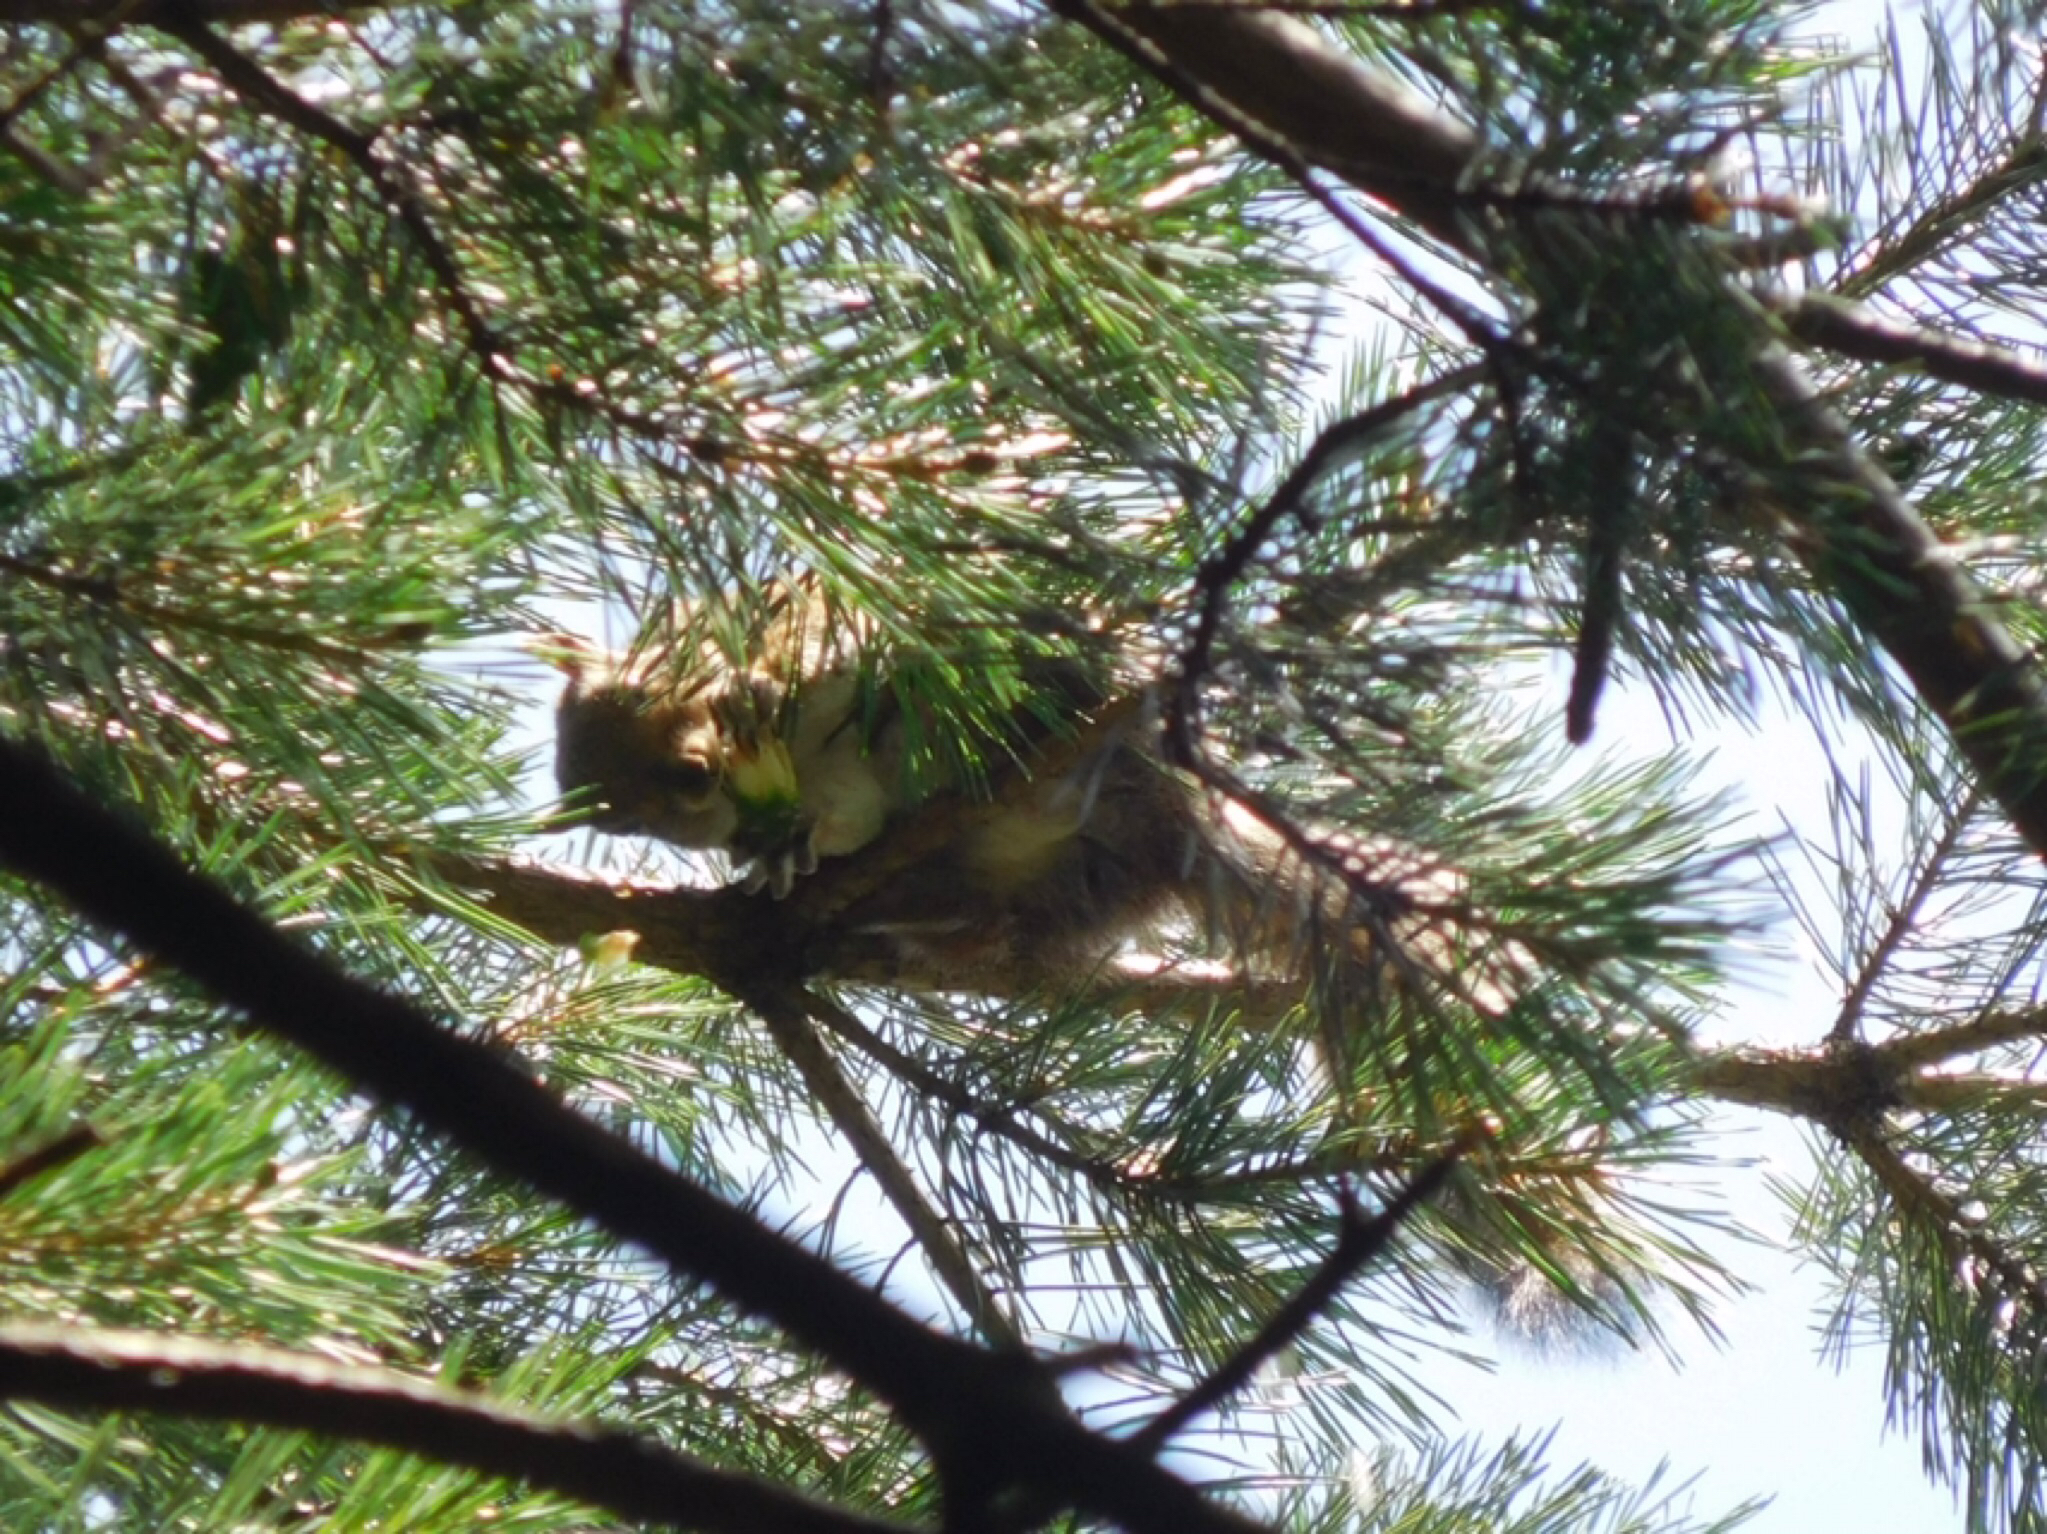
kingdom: Animalia
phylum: Chordata
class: Mammalia
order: Rodentia
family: Sciuridae
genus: Sciurus
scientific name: Sciurus carolinensis
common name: Eastern gray squirrel
